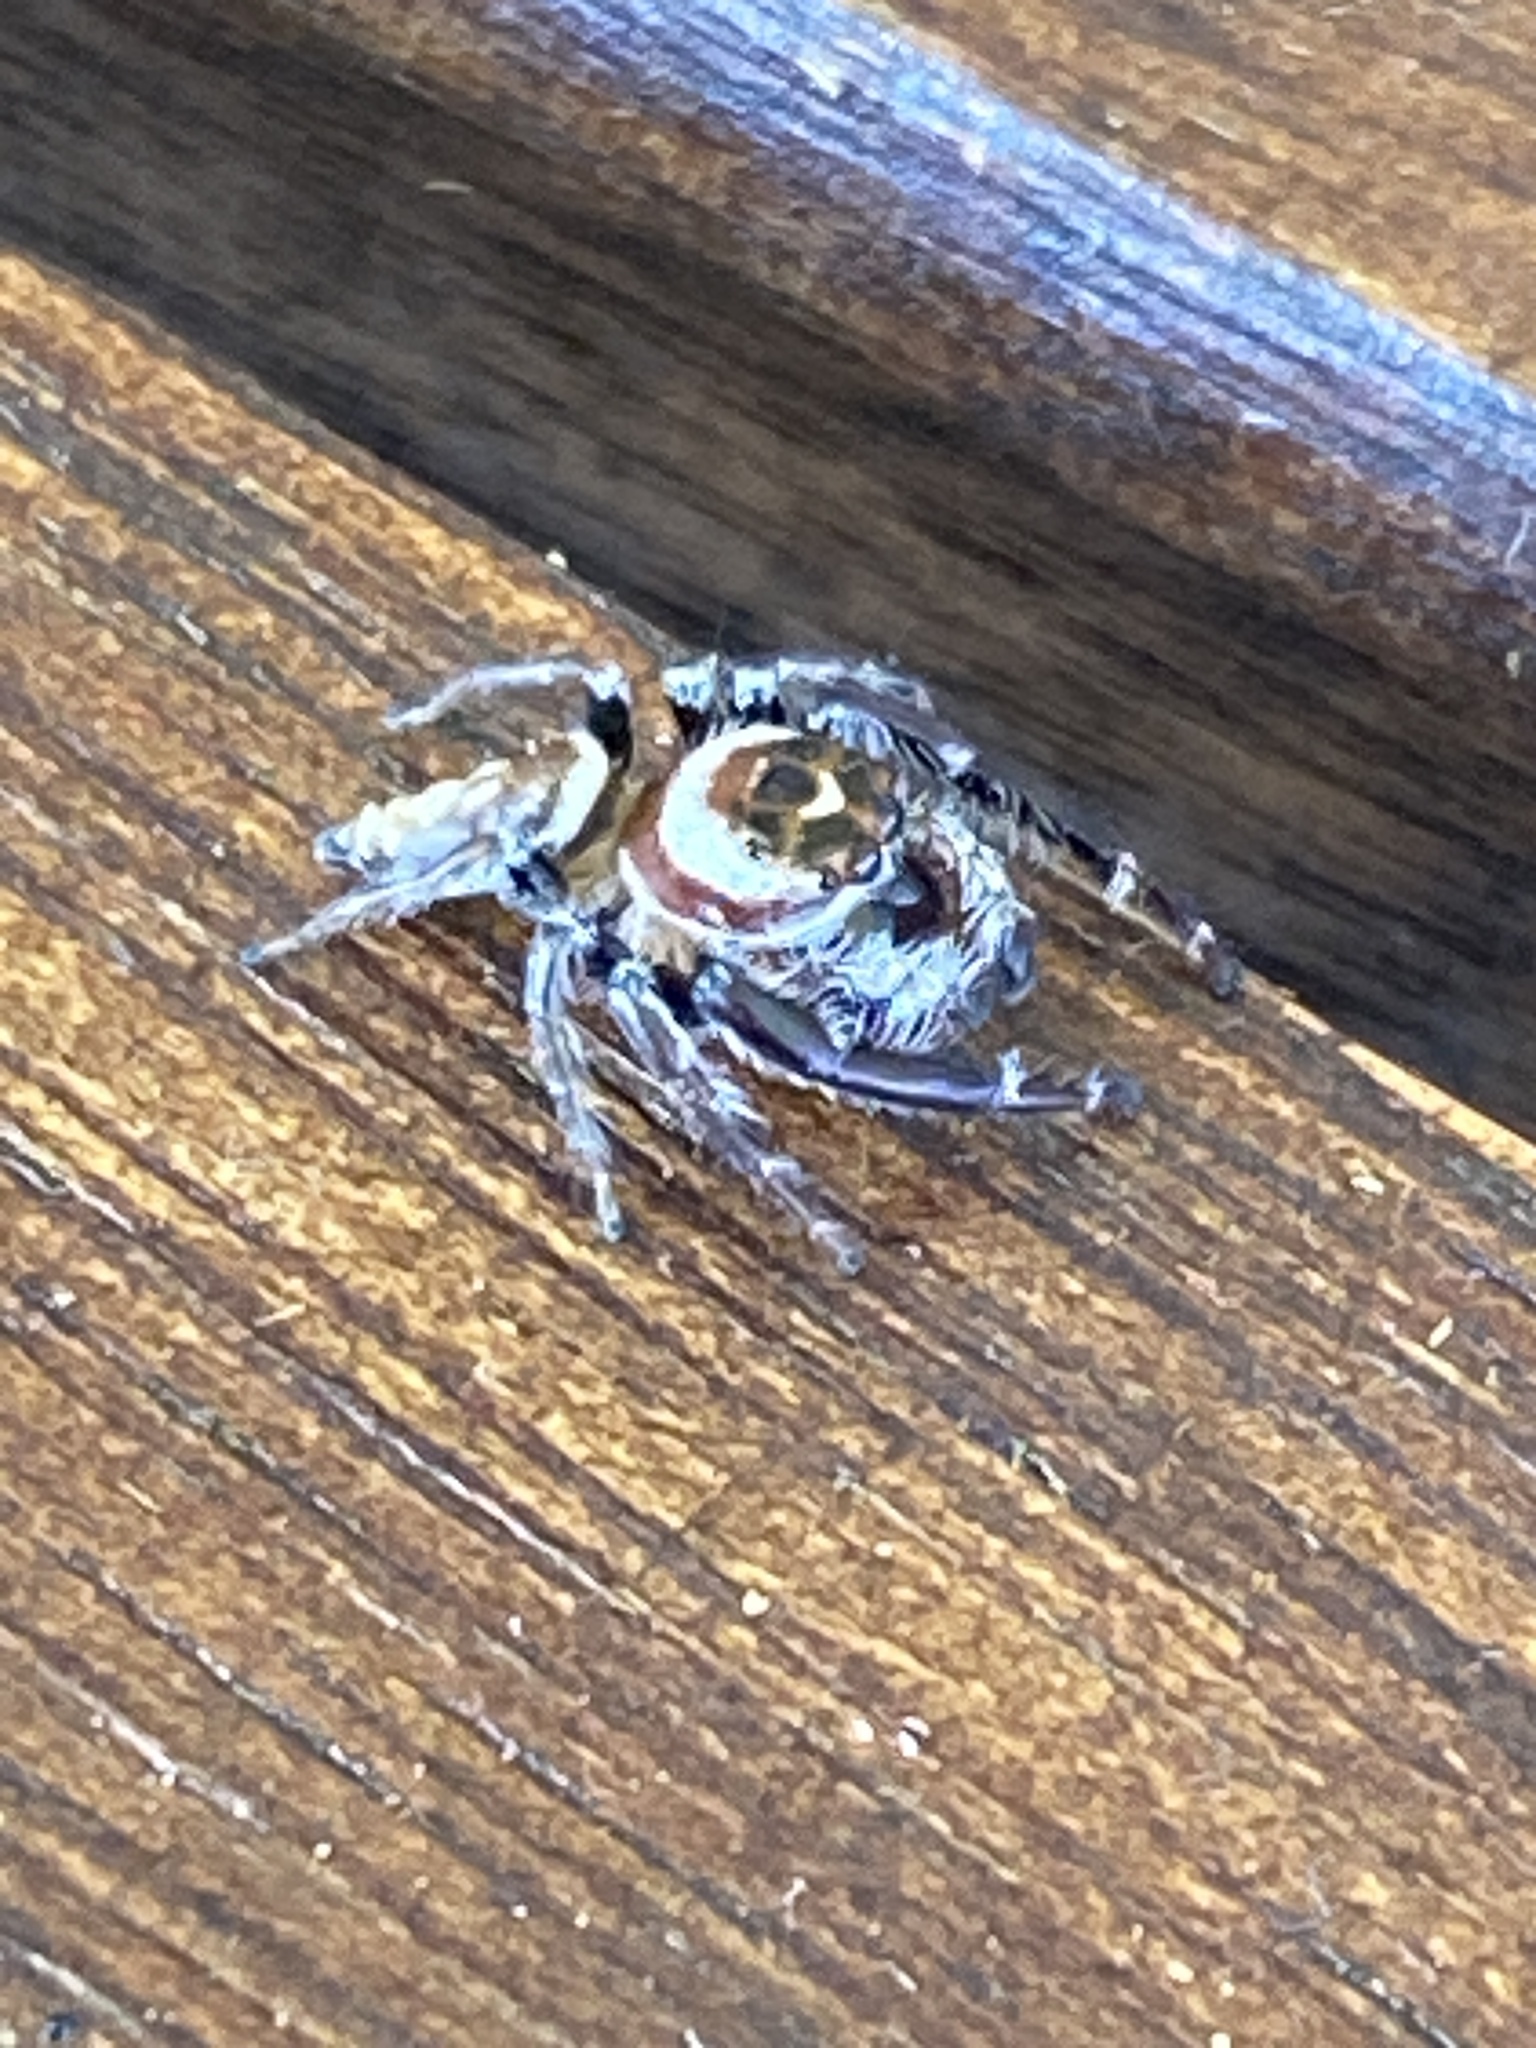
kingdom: Animalia
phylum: Arthropoda
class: Arachnida
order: Araneae
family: Salticidae
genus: Opisthoncus
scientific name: Opisthoncus polyphemus
